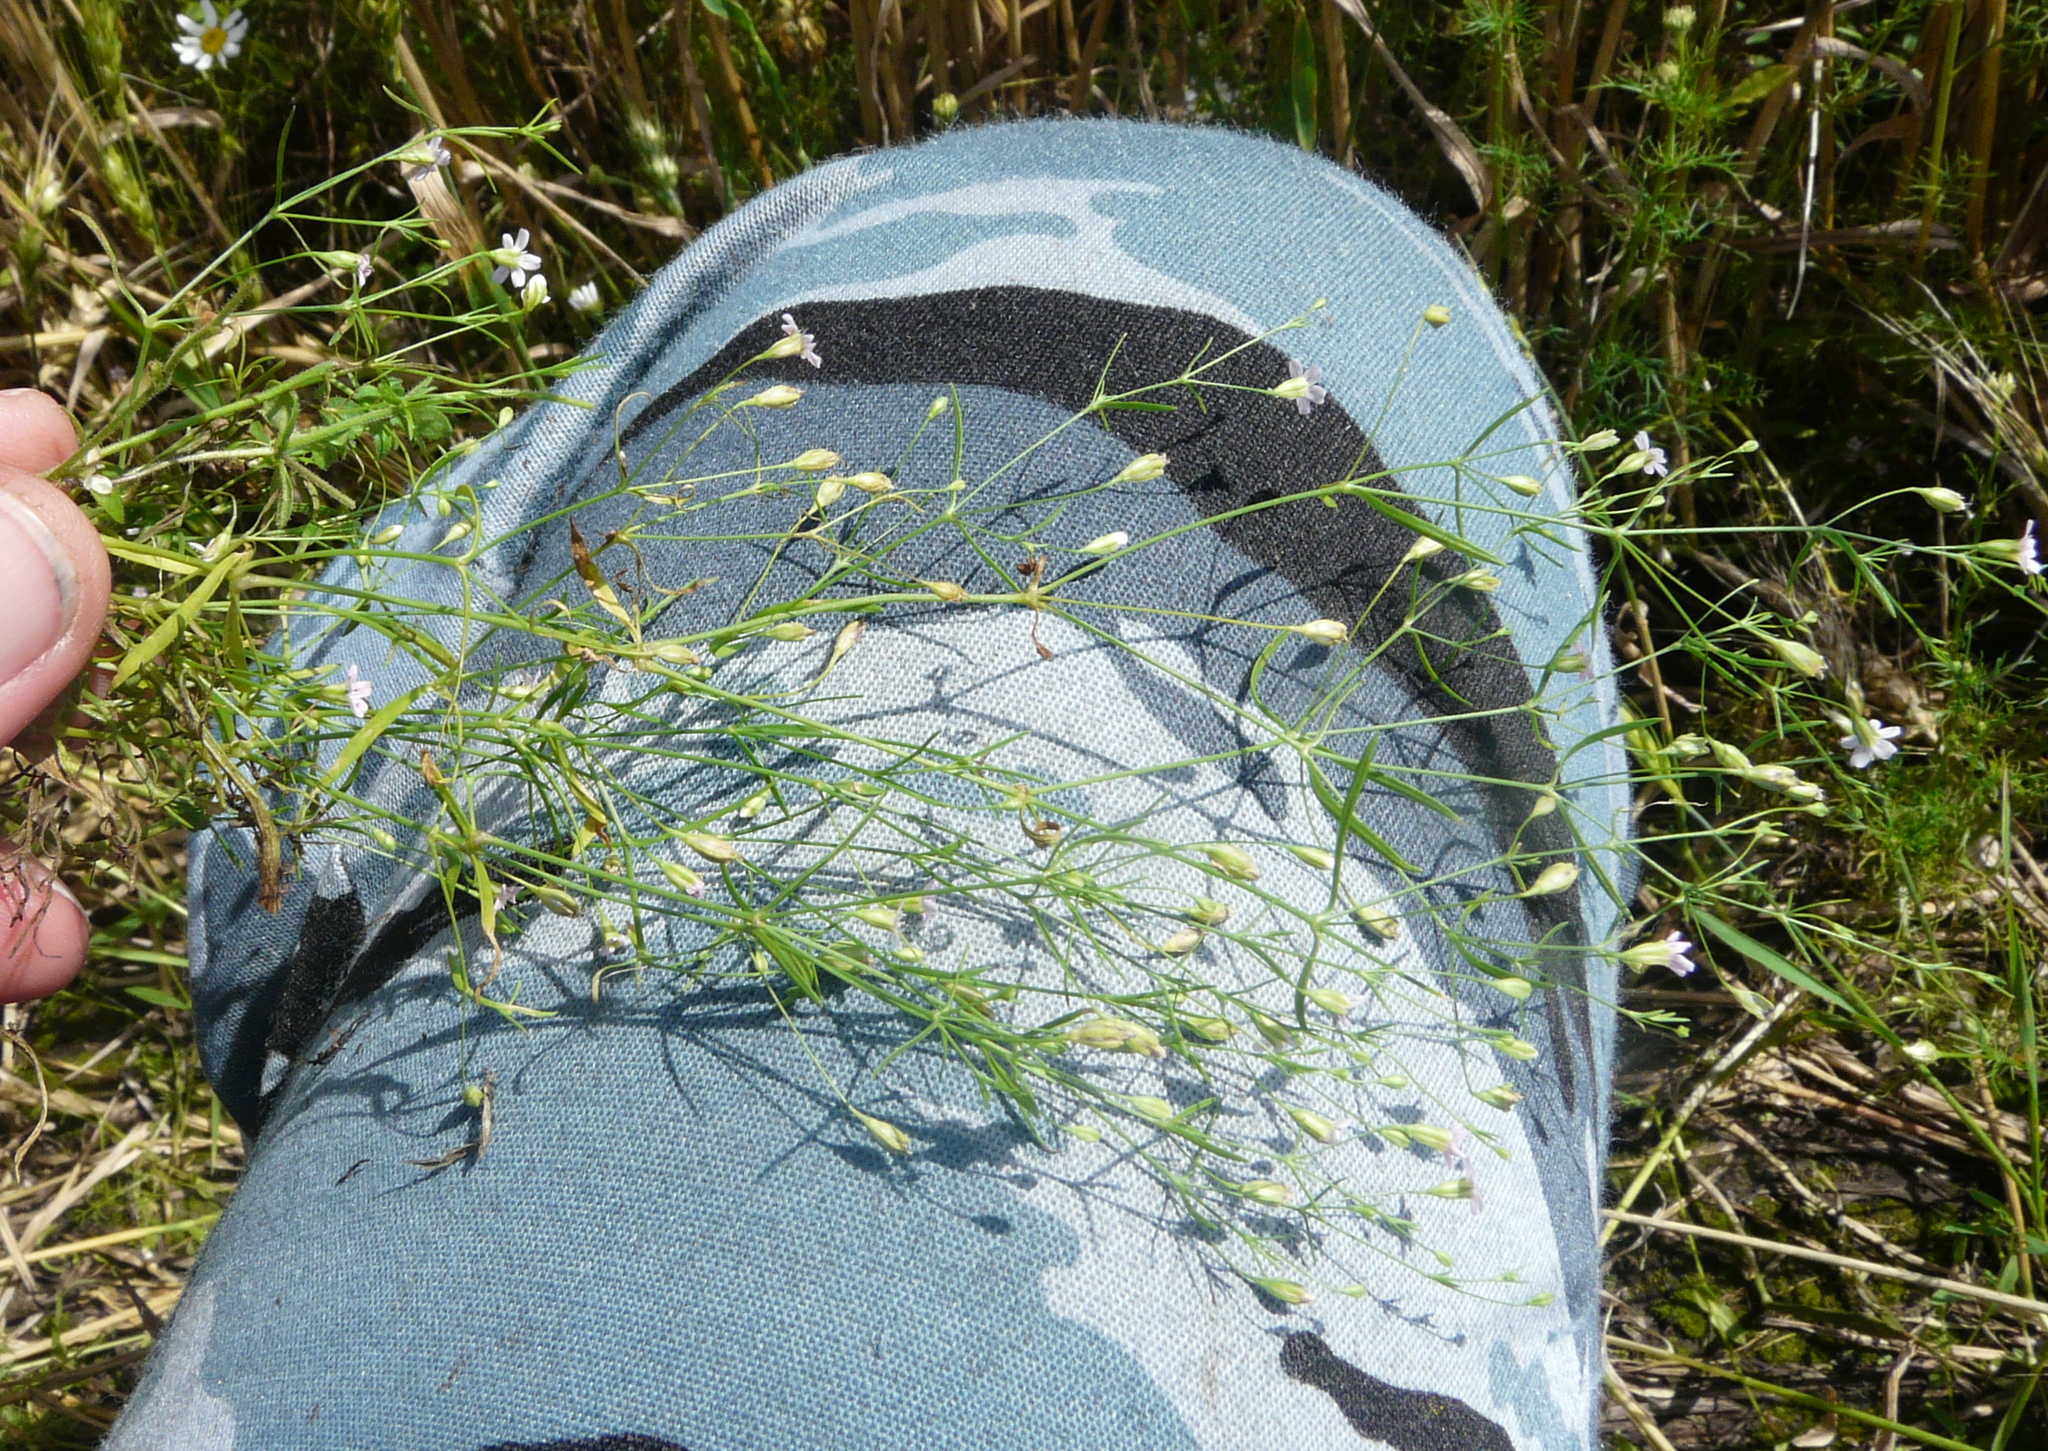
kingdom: Plantae
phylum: Tracheophyta
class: Magnoliopsida
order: Caryophyllales
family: Caryophyllaceae
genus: Psammophiliella
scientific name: Psammophiliella muralis
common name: Cushion baby's-breath
